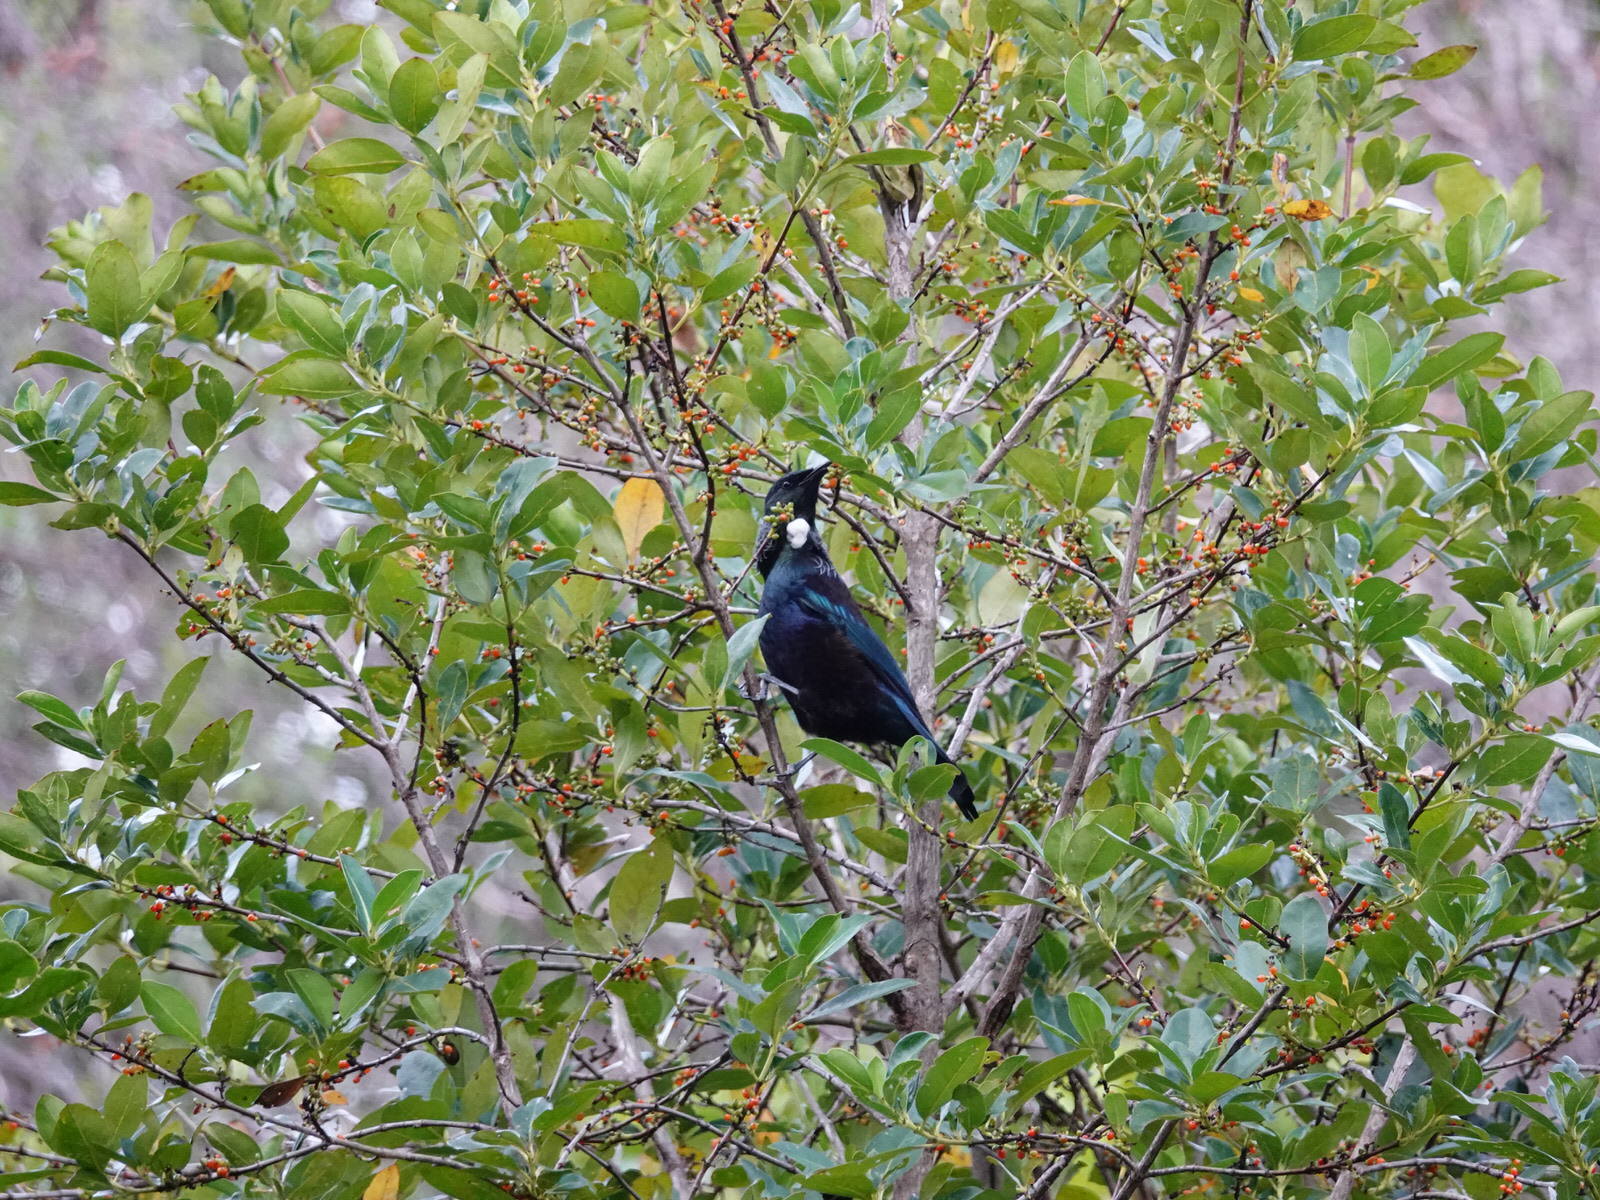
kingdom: Animalia
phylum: Chordata
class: Aves
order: Passeriformes
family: Meliphagidae
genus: Prosthemadera
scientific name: Prosthemadera novaeseelandiae
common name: Tui
